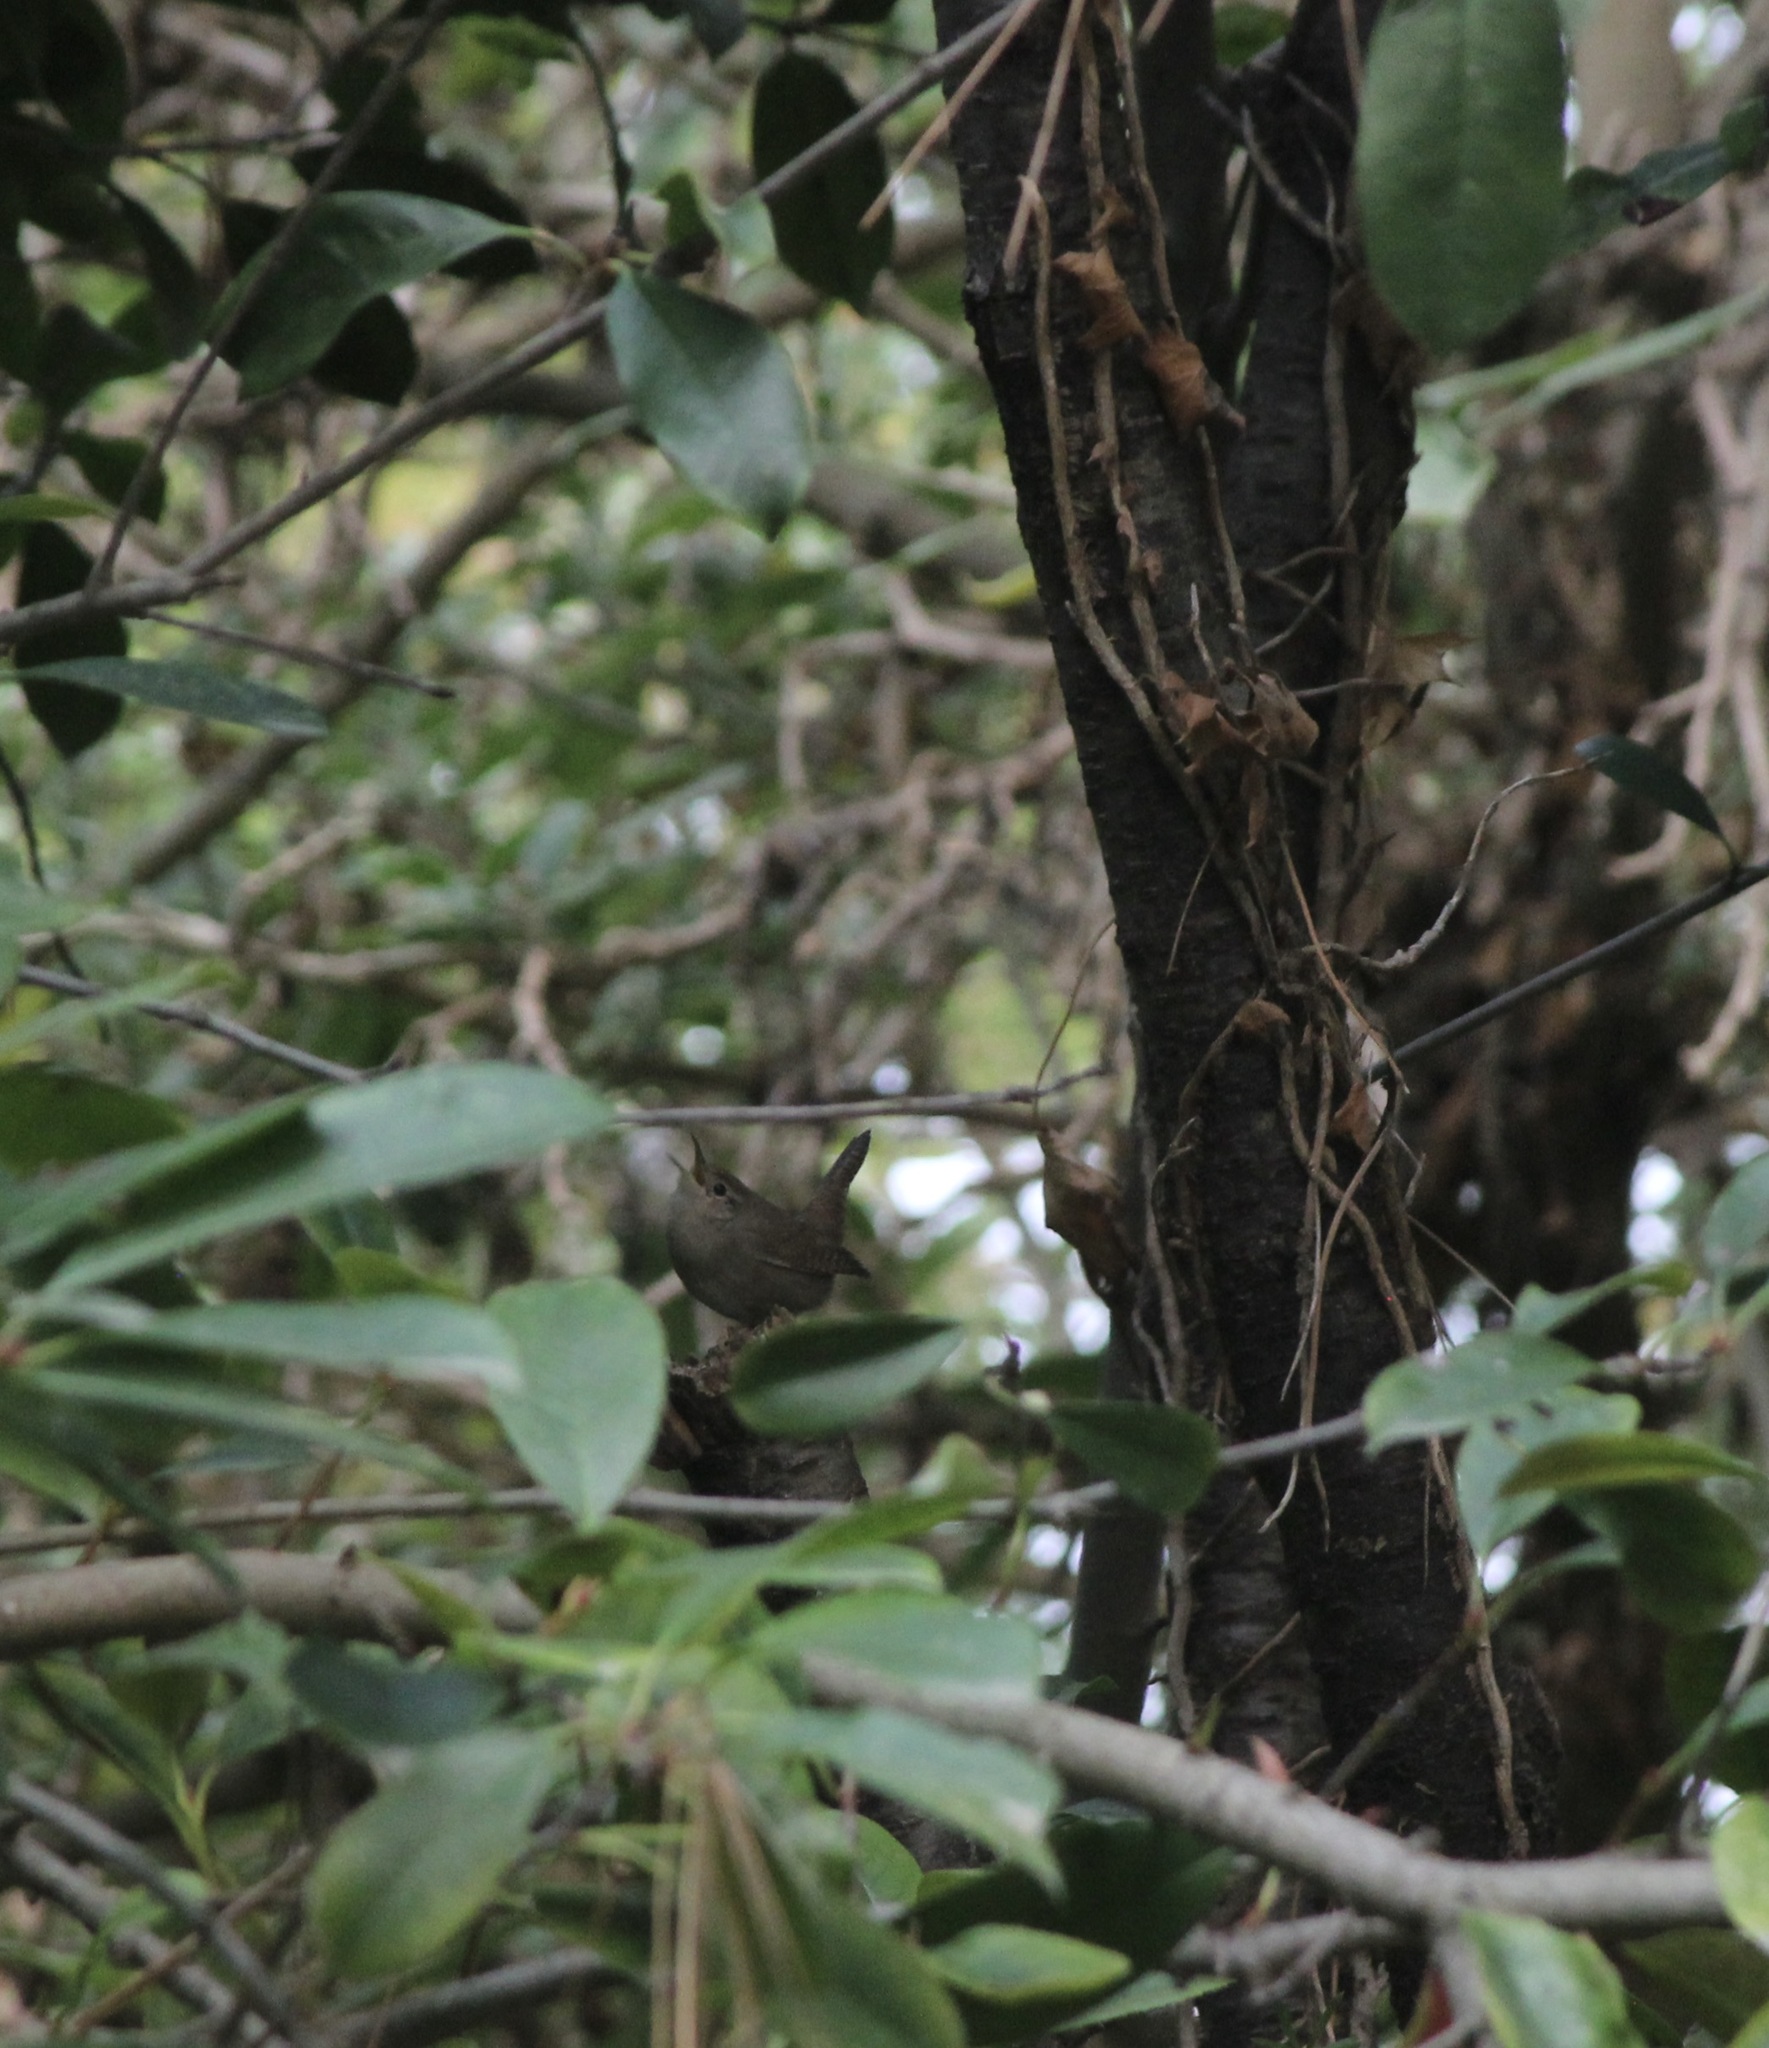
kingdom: Animalia
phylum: Chordata
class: Aves
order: Passeriformes
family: Troglodytidae
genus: Troglodytes
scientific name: Troglodytes aedon
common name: House wren
